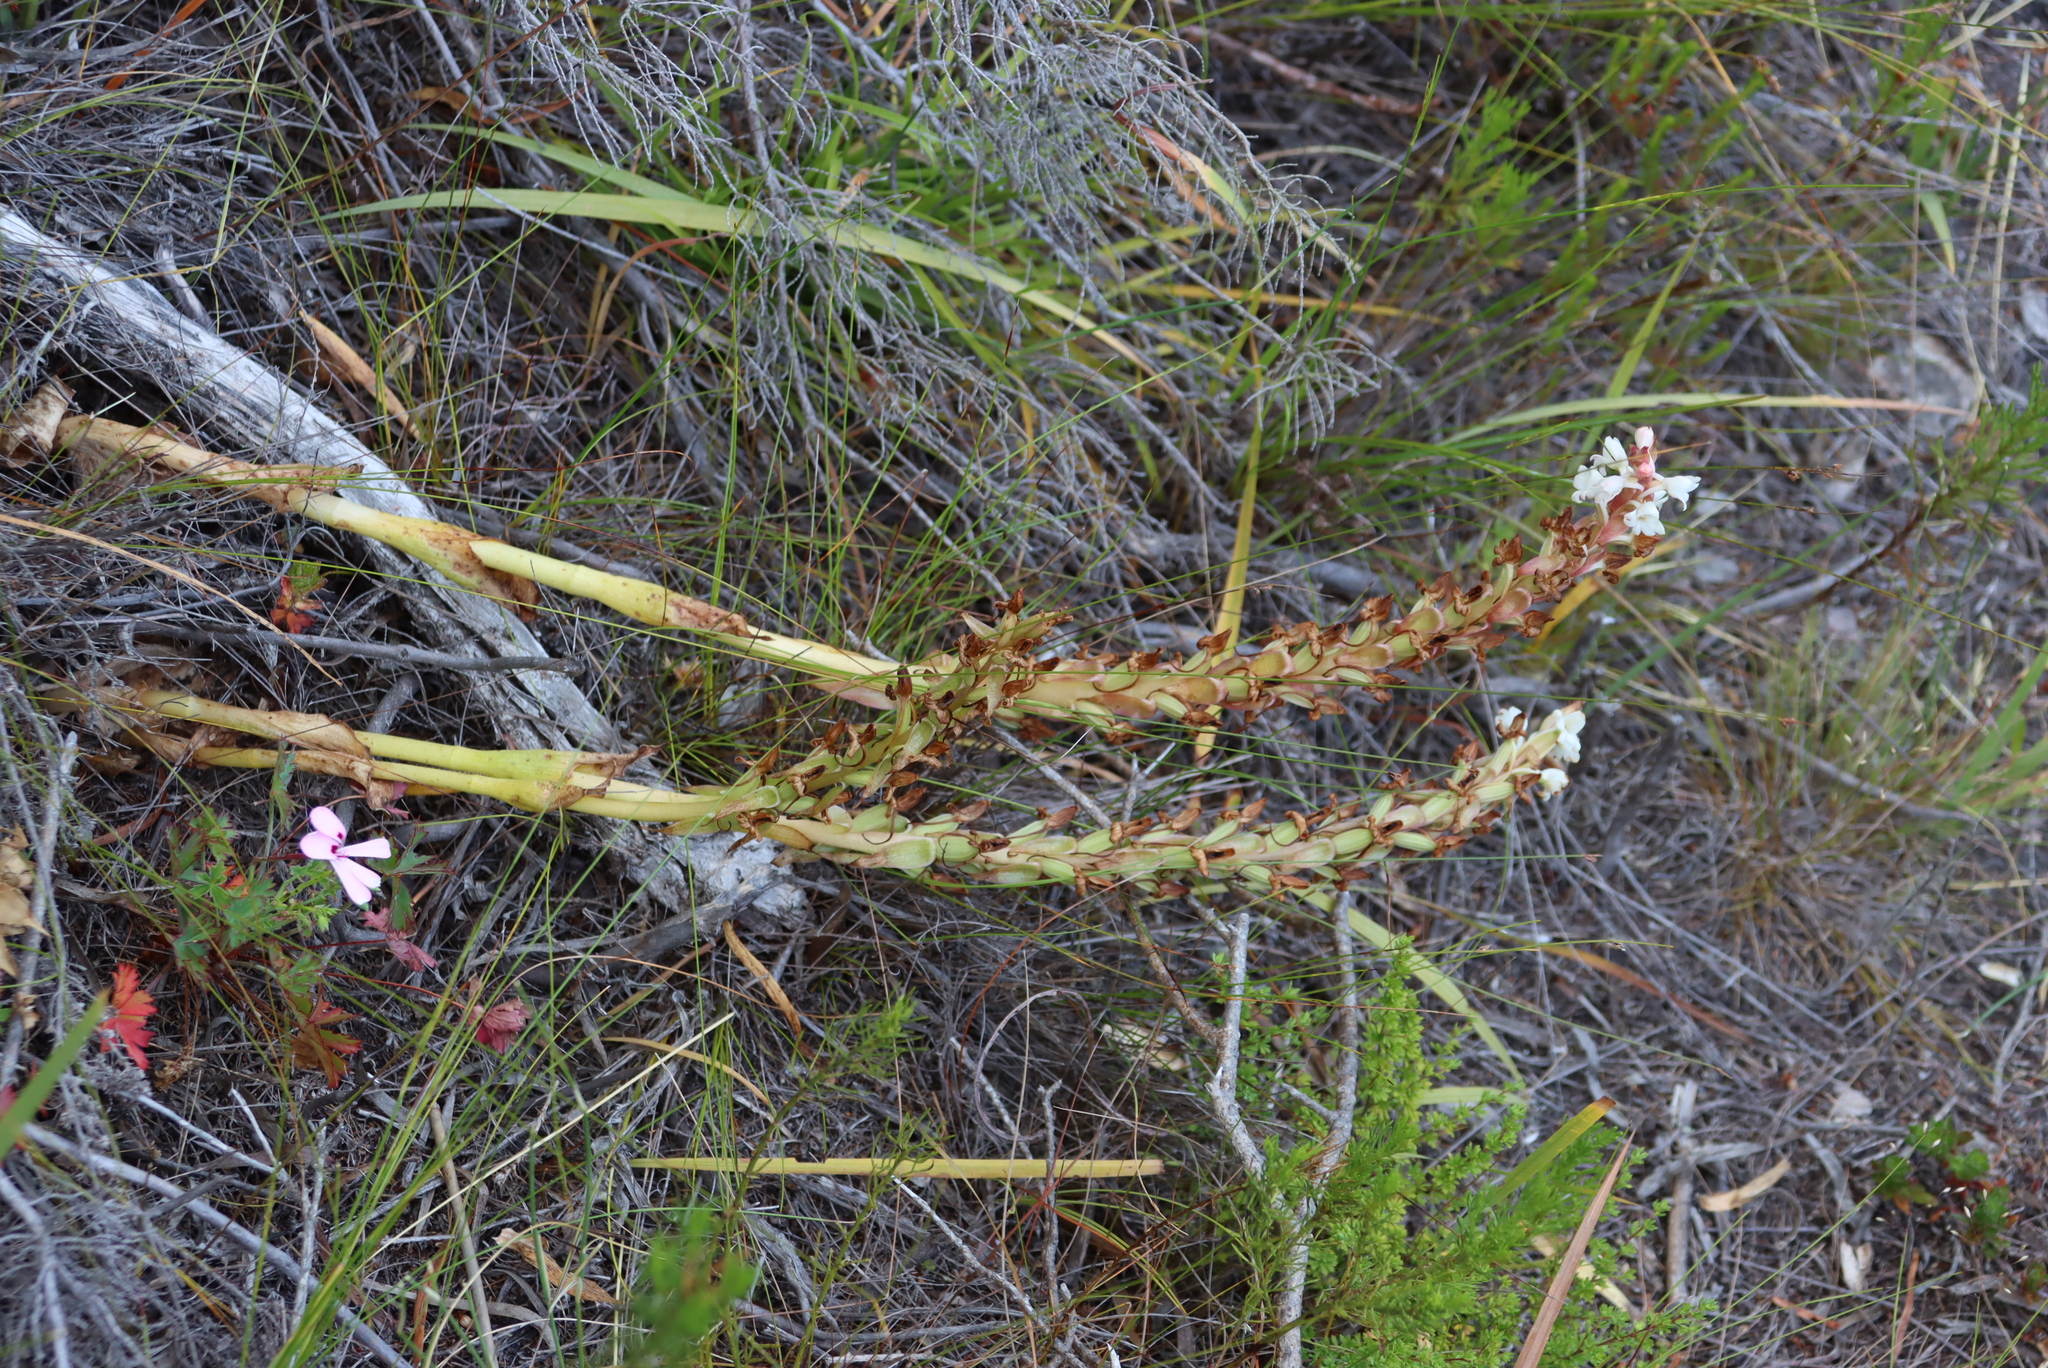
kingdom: Plantae
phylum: Tracheophyta
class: Liliopsida
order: Asparagales
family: Orchidaceae
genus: Satyrium
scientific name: Satyrium acuminatum
